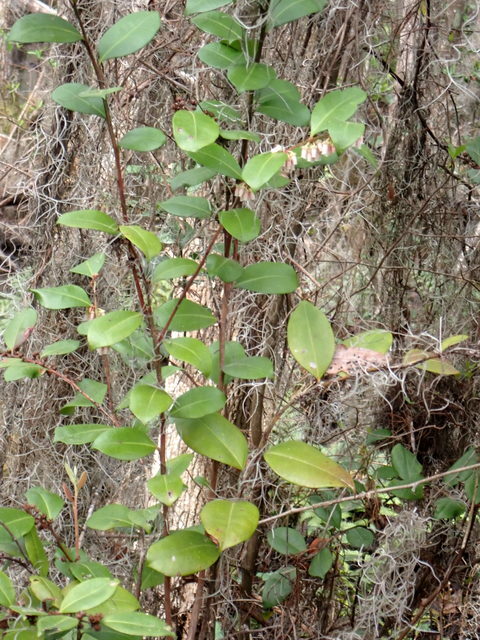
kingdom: Plantae
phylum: Tracheophyta
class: Magnoliopsida
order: Ericales
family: Ericaceae
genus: Lyonia
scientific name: Lyonia lucida
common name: Fetterbush
